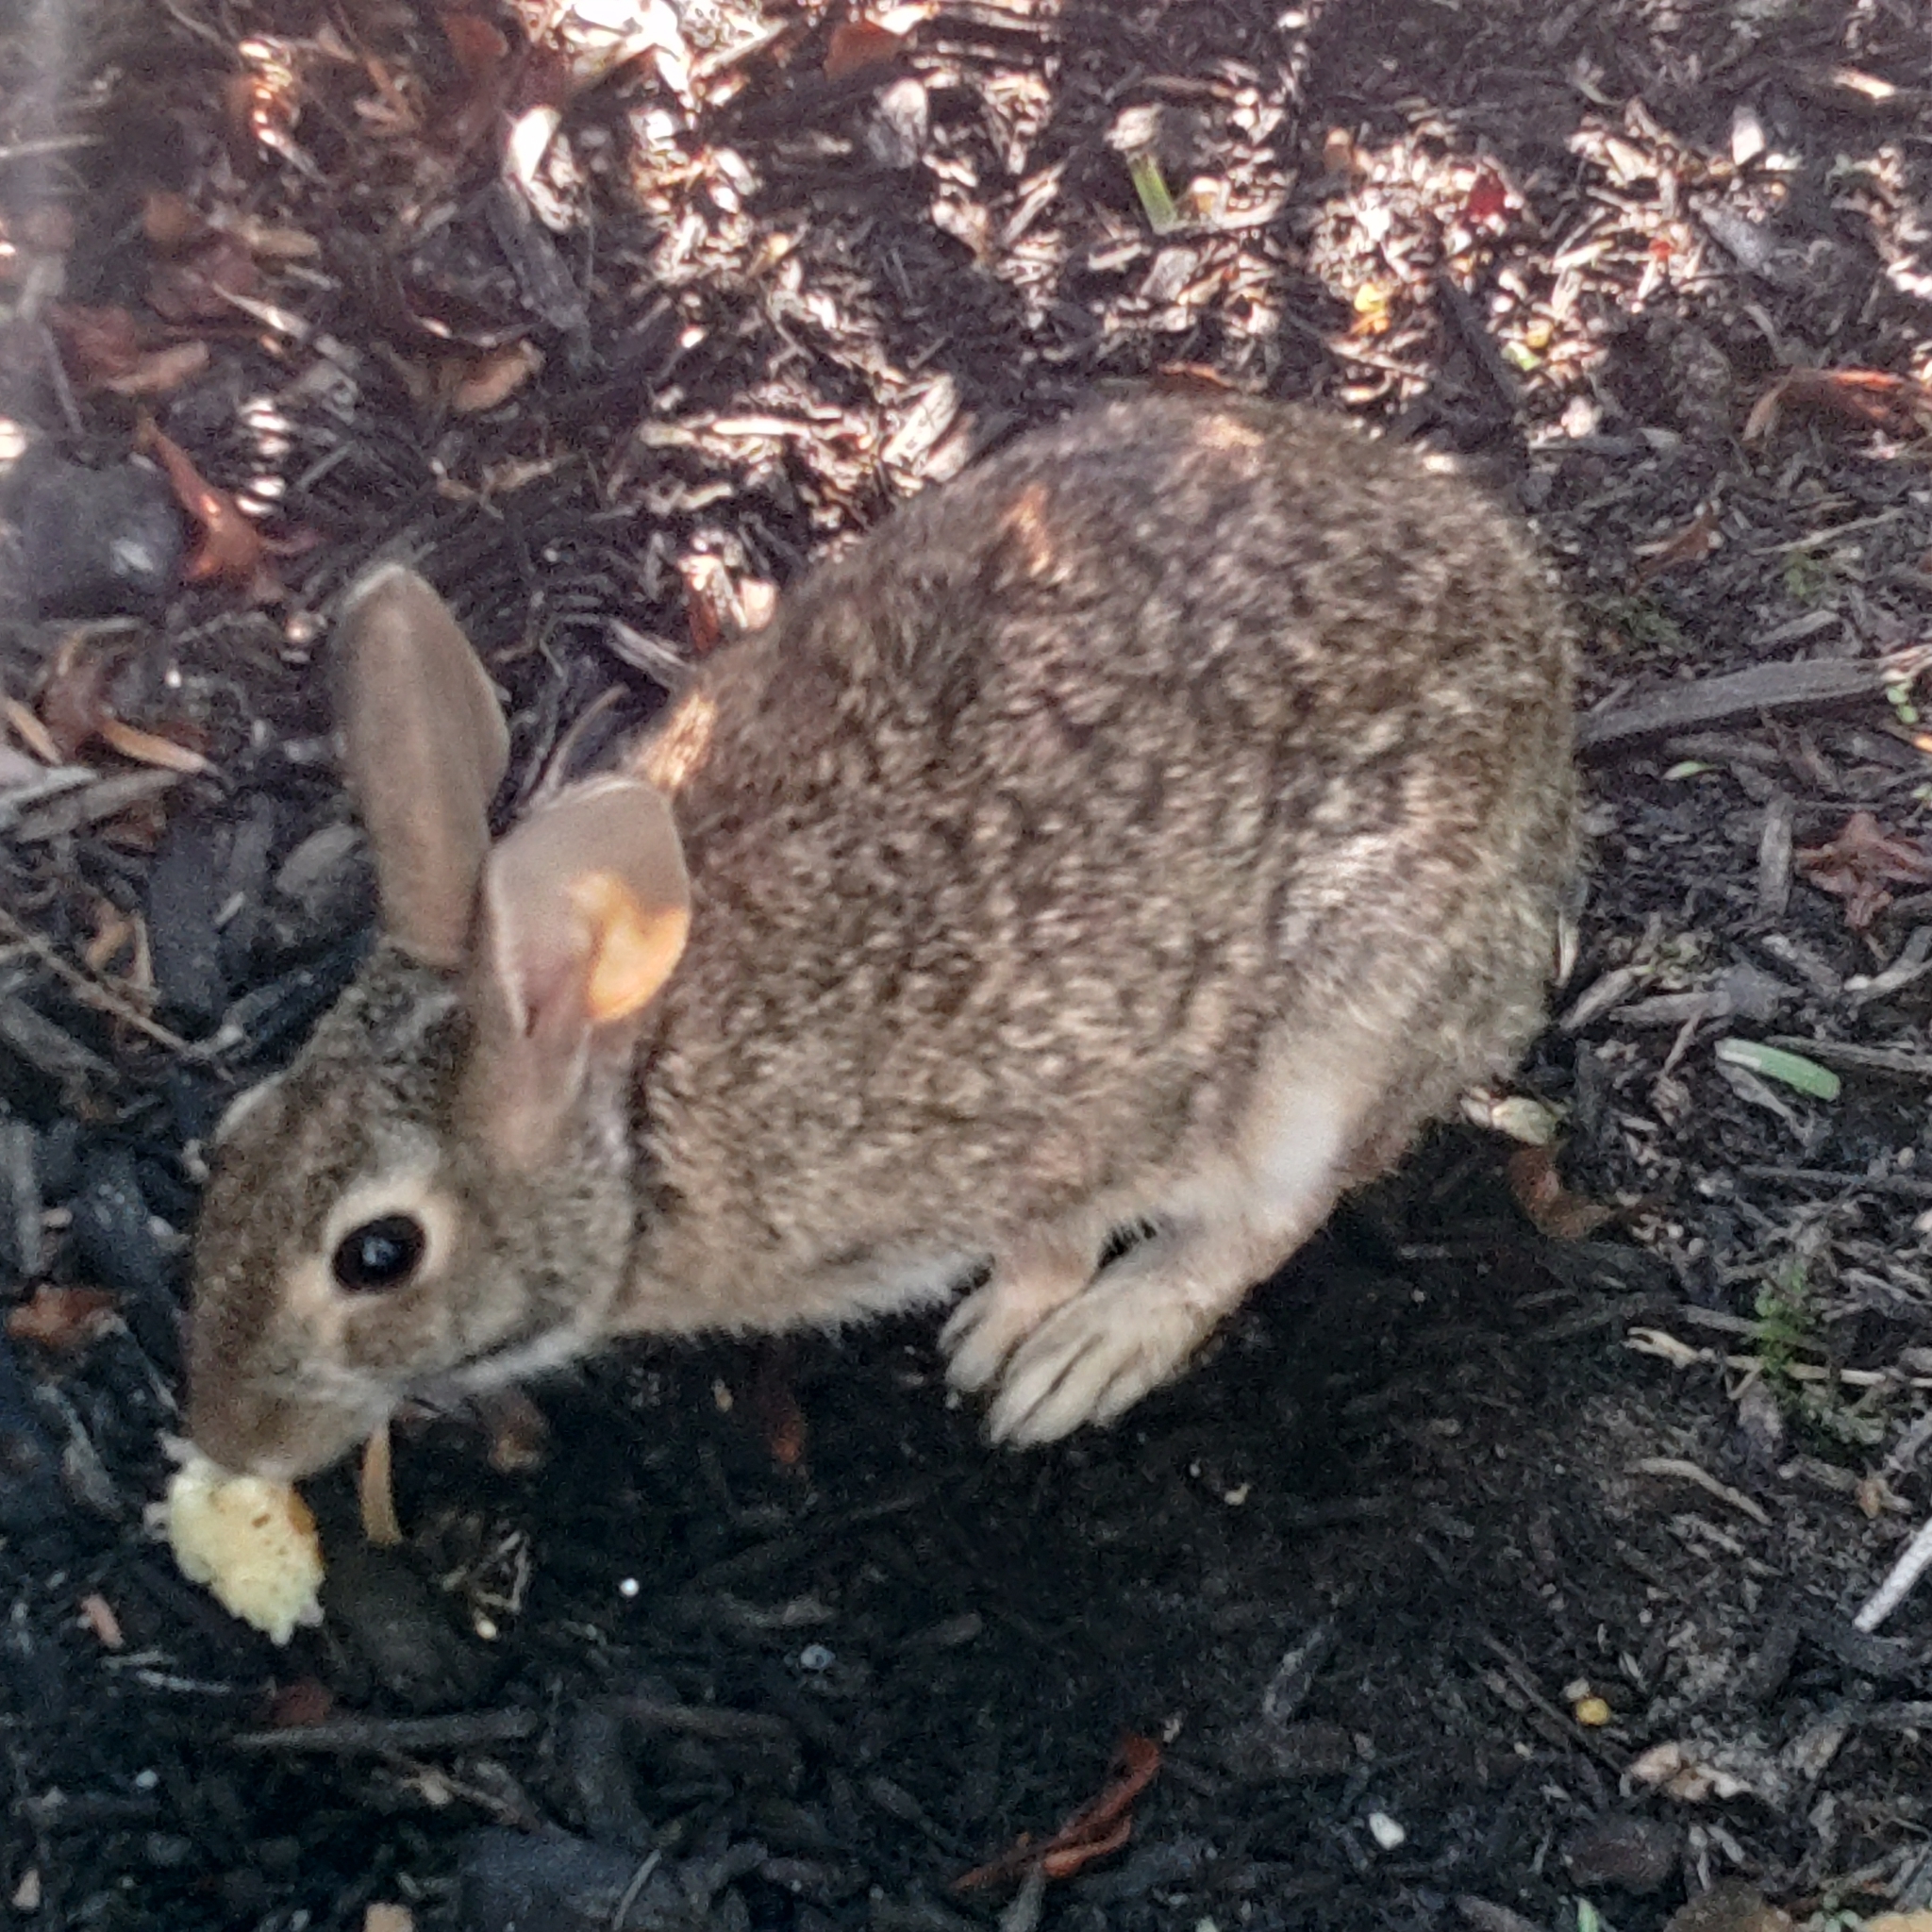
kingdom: Animalia
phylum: Chordata
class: Mammalia
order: Lagomorpha
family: Leporidae
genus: Sylvilagus
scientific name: Sylvilagus floridanus
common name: Eastern cottontail
